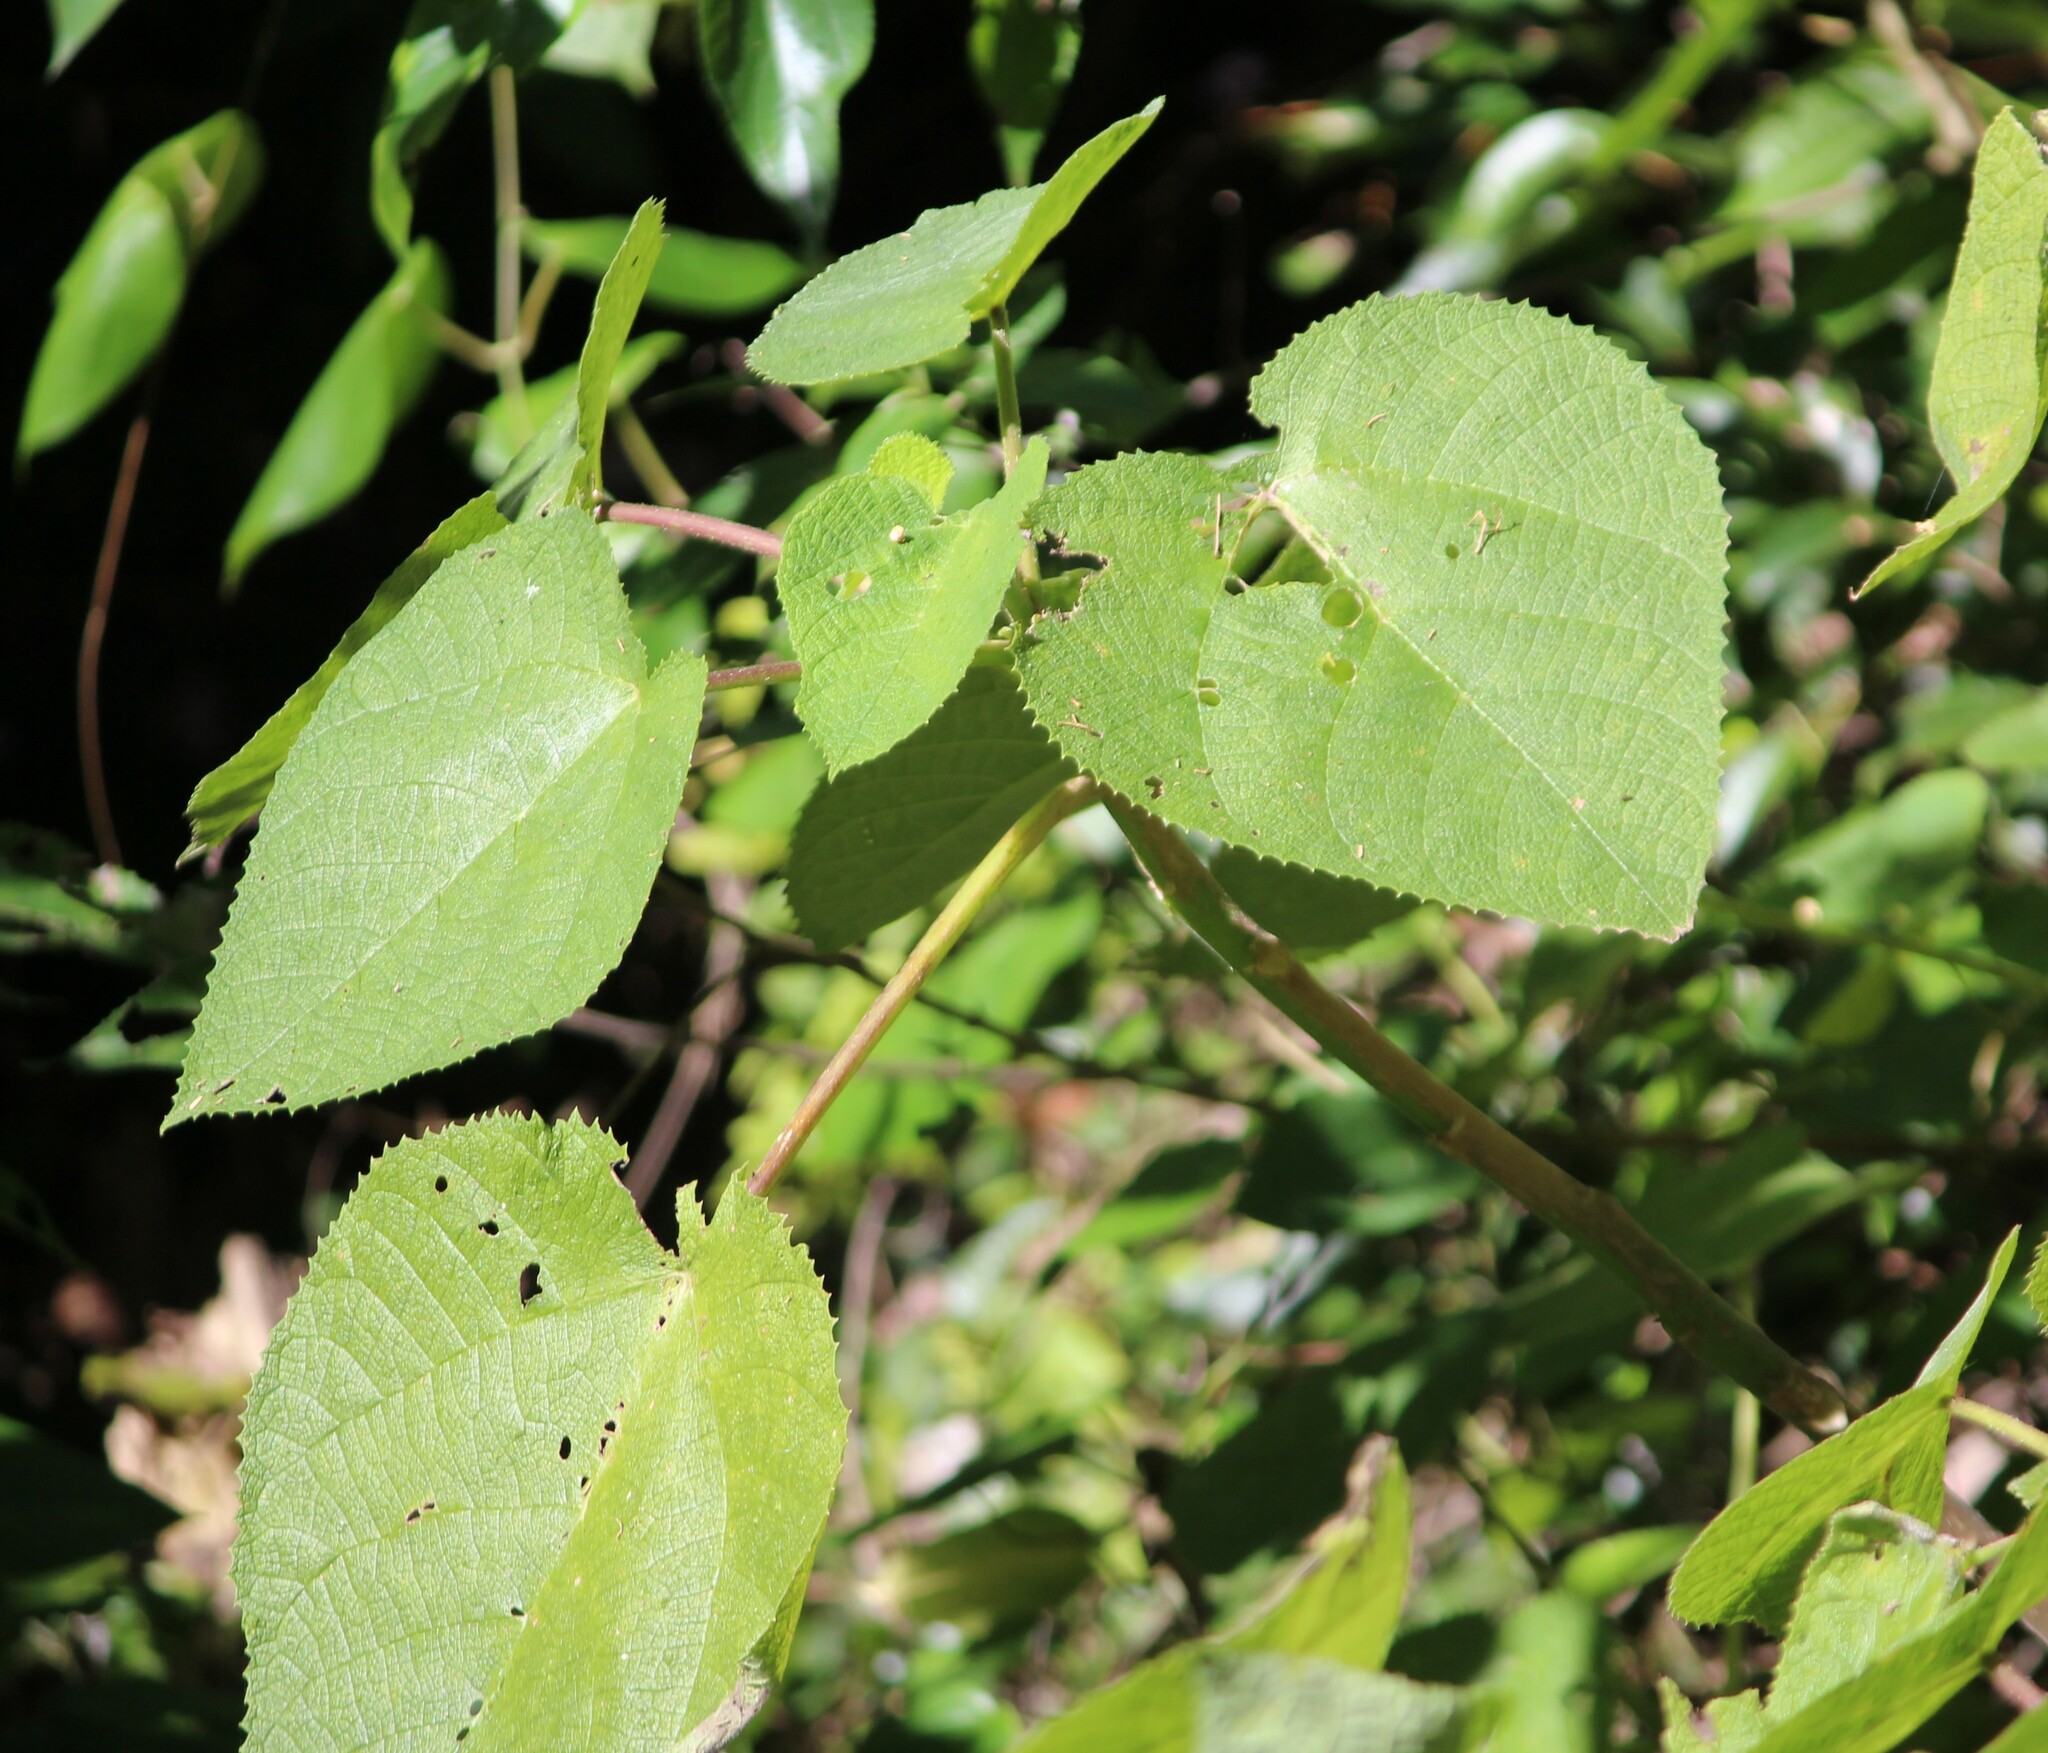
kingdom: Plantae
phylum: Tracheophyta
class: Magnoliopsida
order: Rosales
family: Urticaceae
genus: Dendrocnide
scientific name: Dendrocnide moroides
